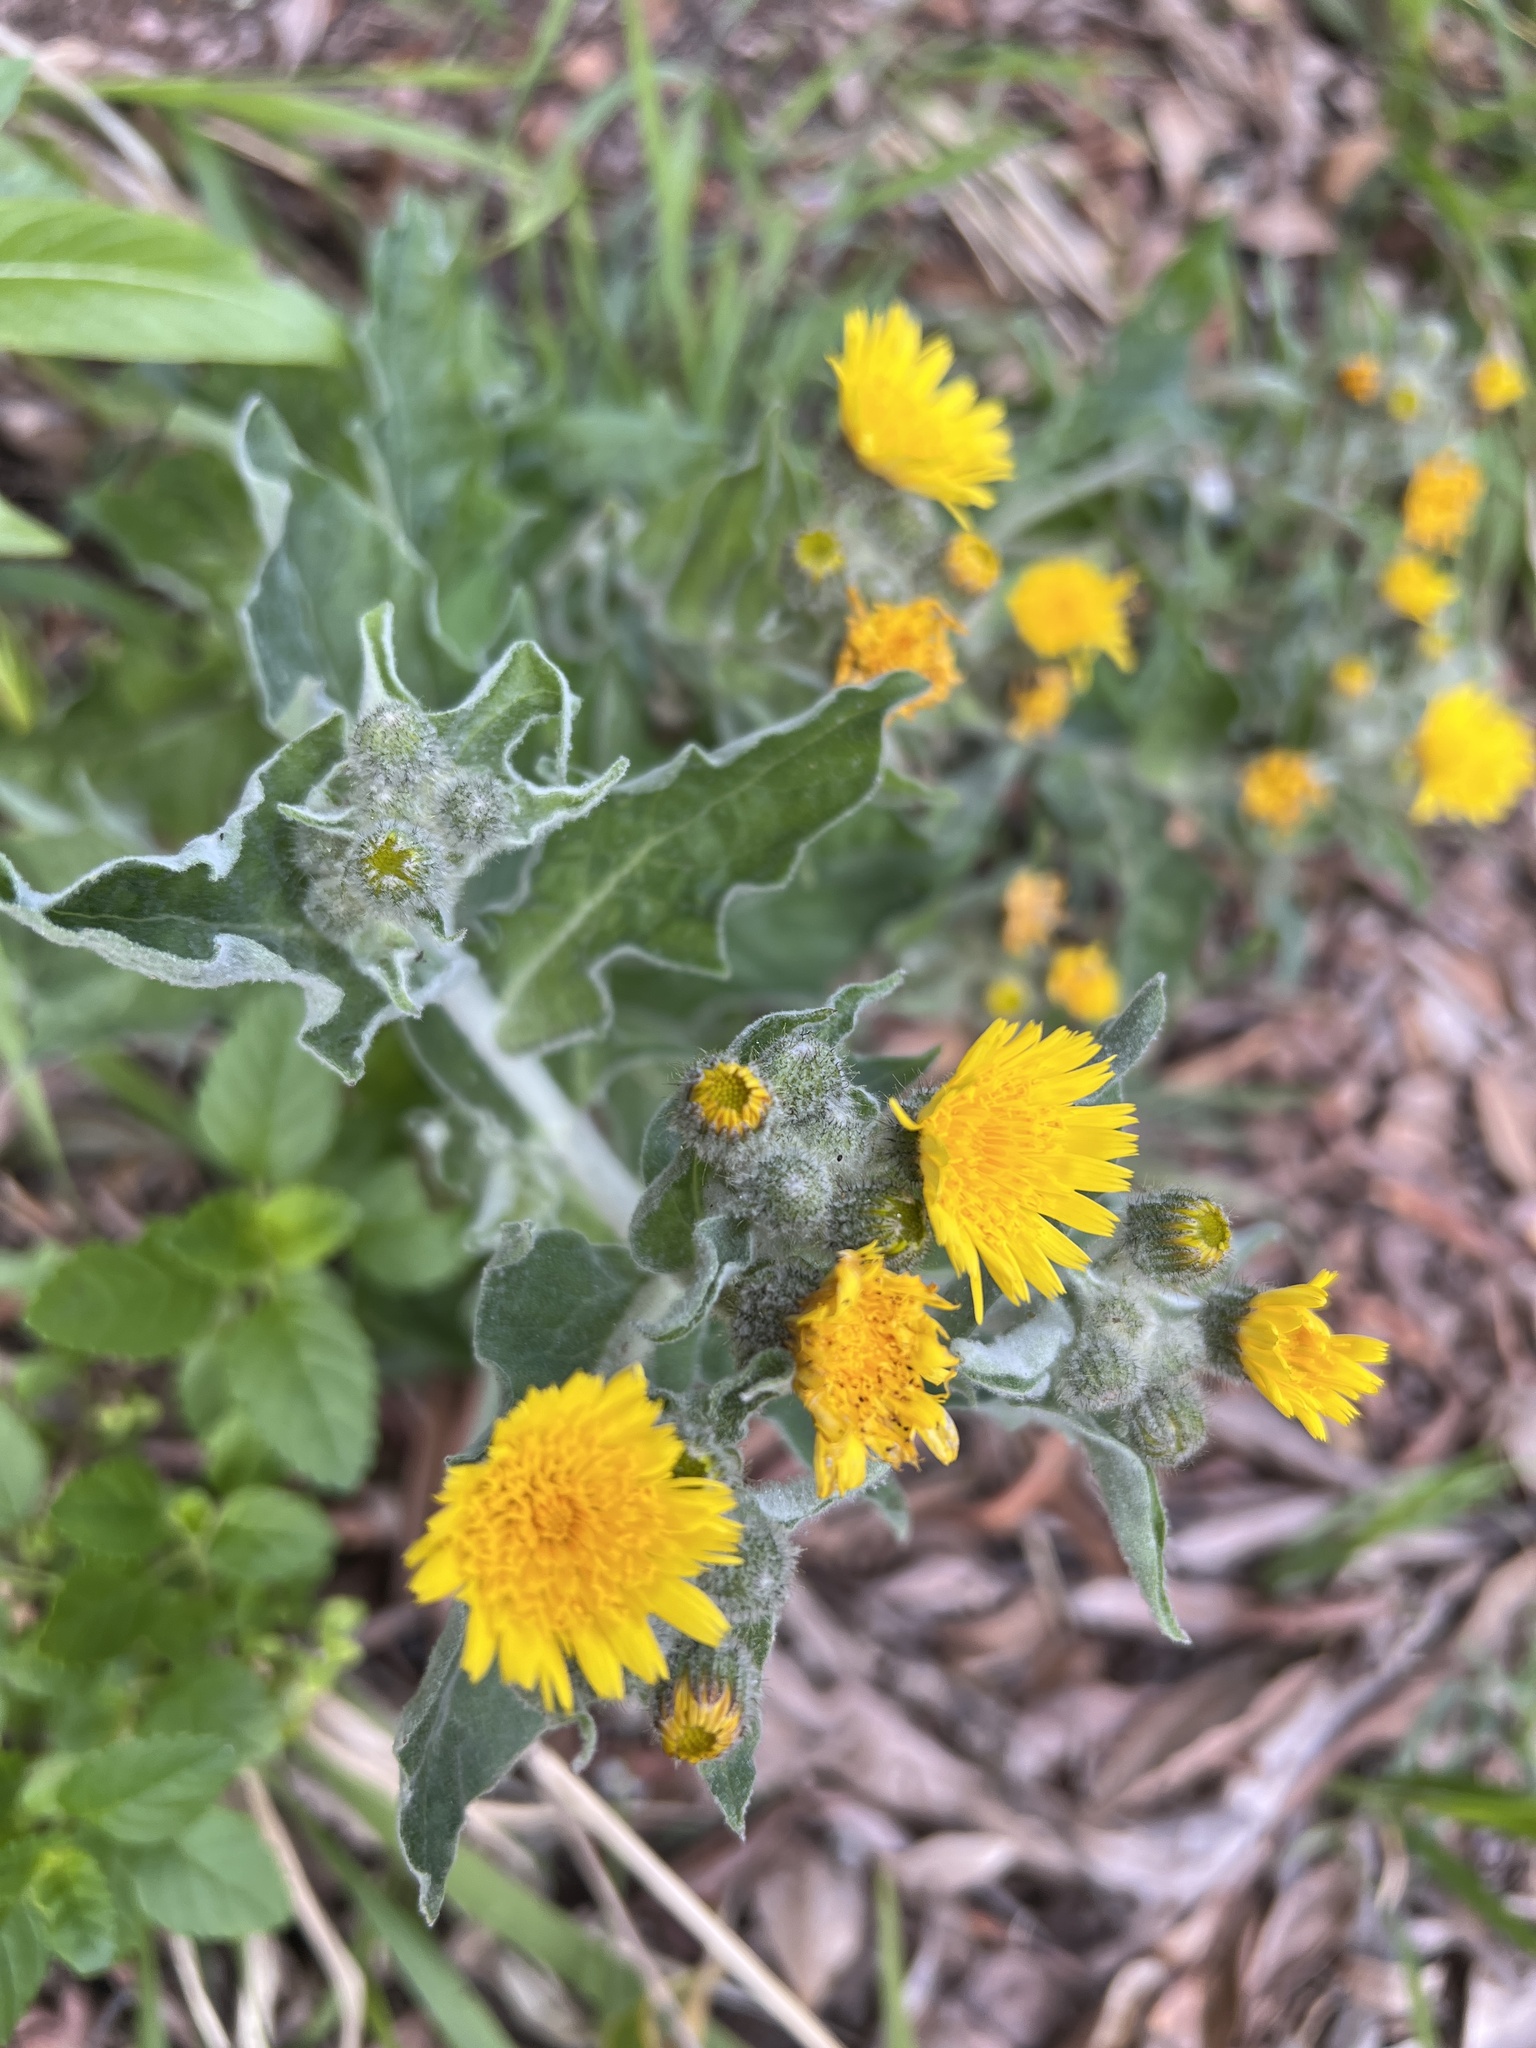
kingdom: Plantae
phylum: Tracheophyta
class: Magnoliopsida
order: Asterales
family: Asteraceae
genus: Andryala
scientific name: Andryala pinnatifida
